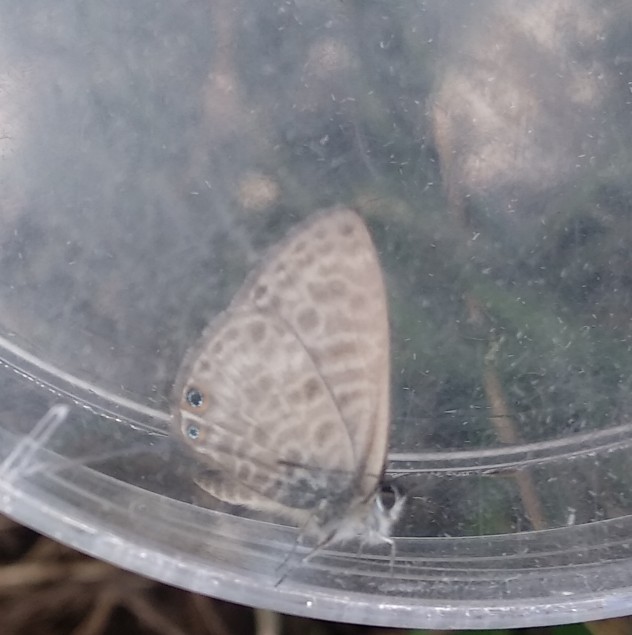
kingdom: Animalia
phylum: Arthropoda
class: Insecta
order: Lepidoptera
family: Lycaenidae
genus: Leptotes
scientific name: Leptotes pirithous
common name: Lang's short-tailed blue
